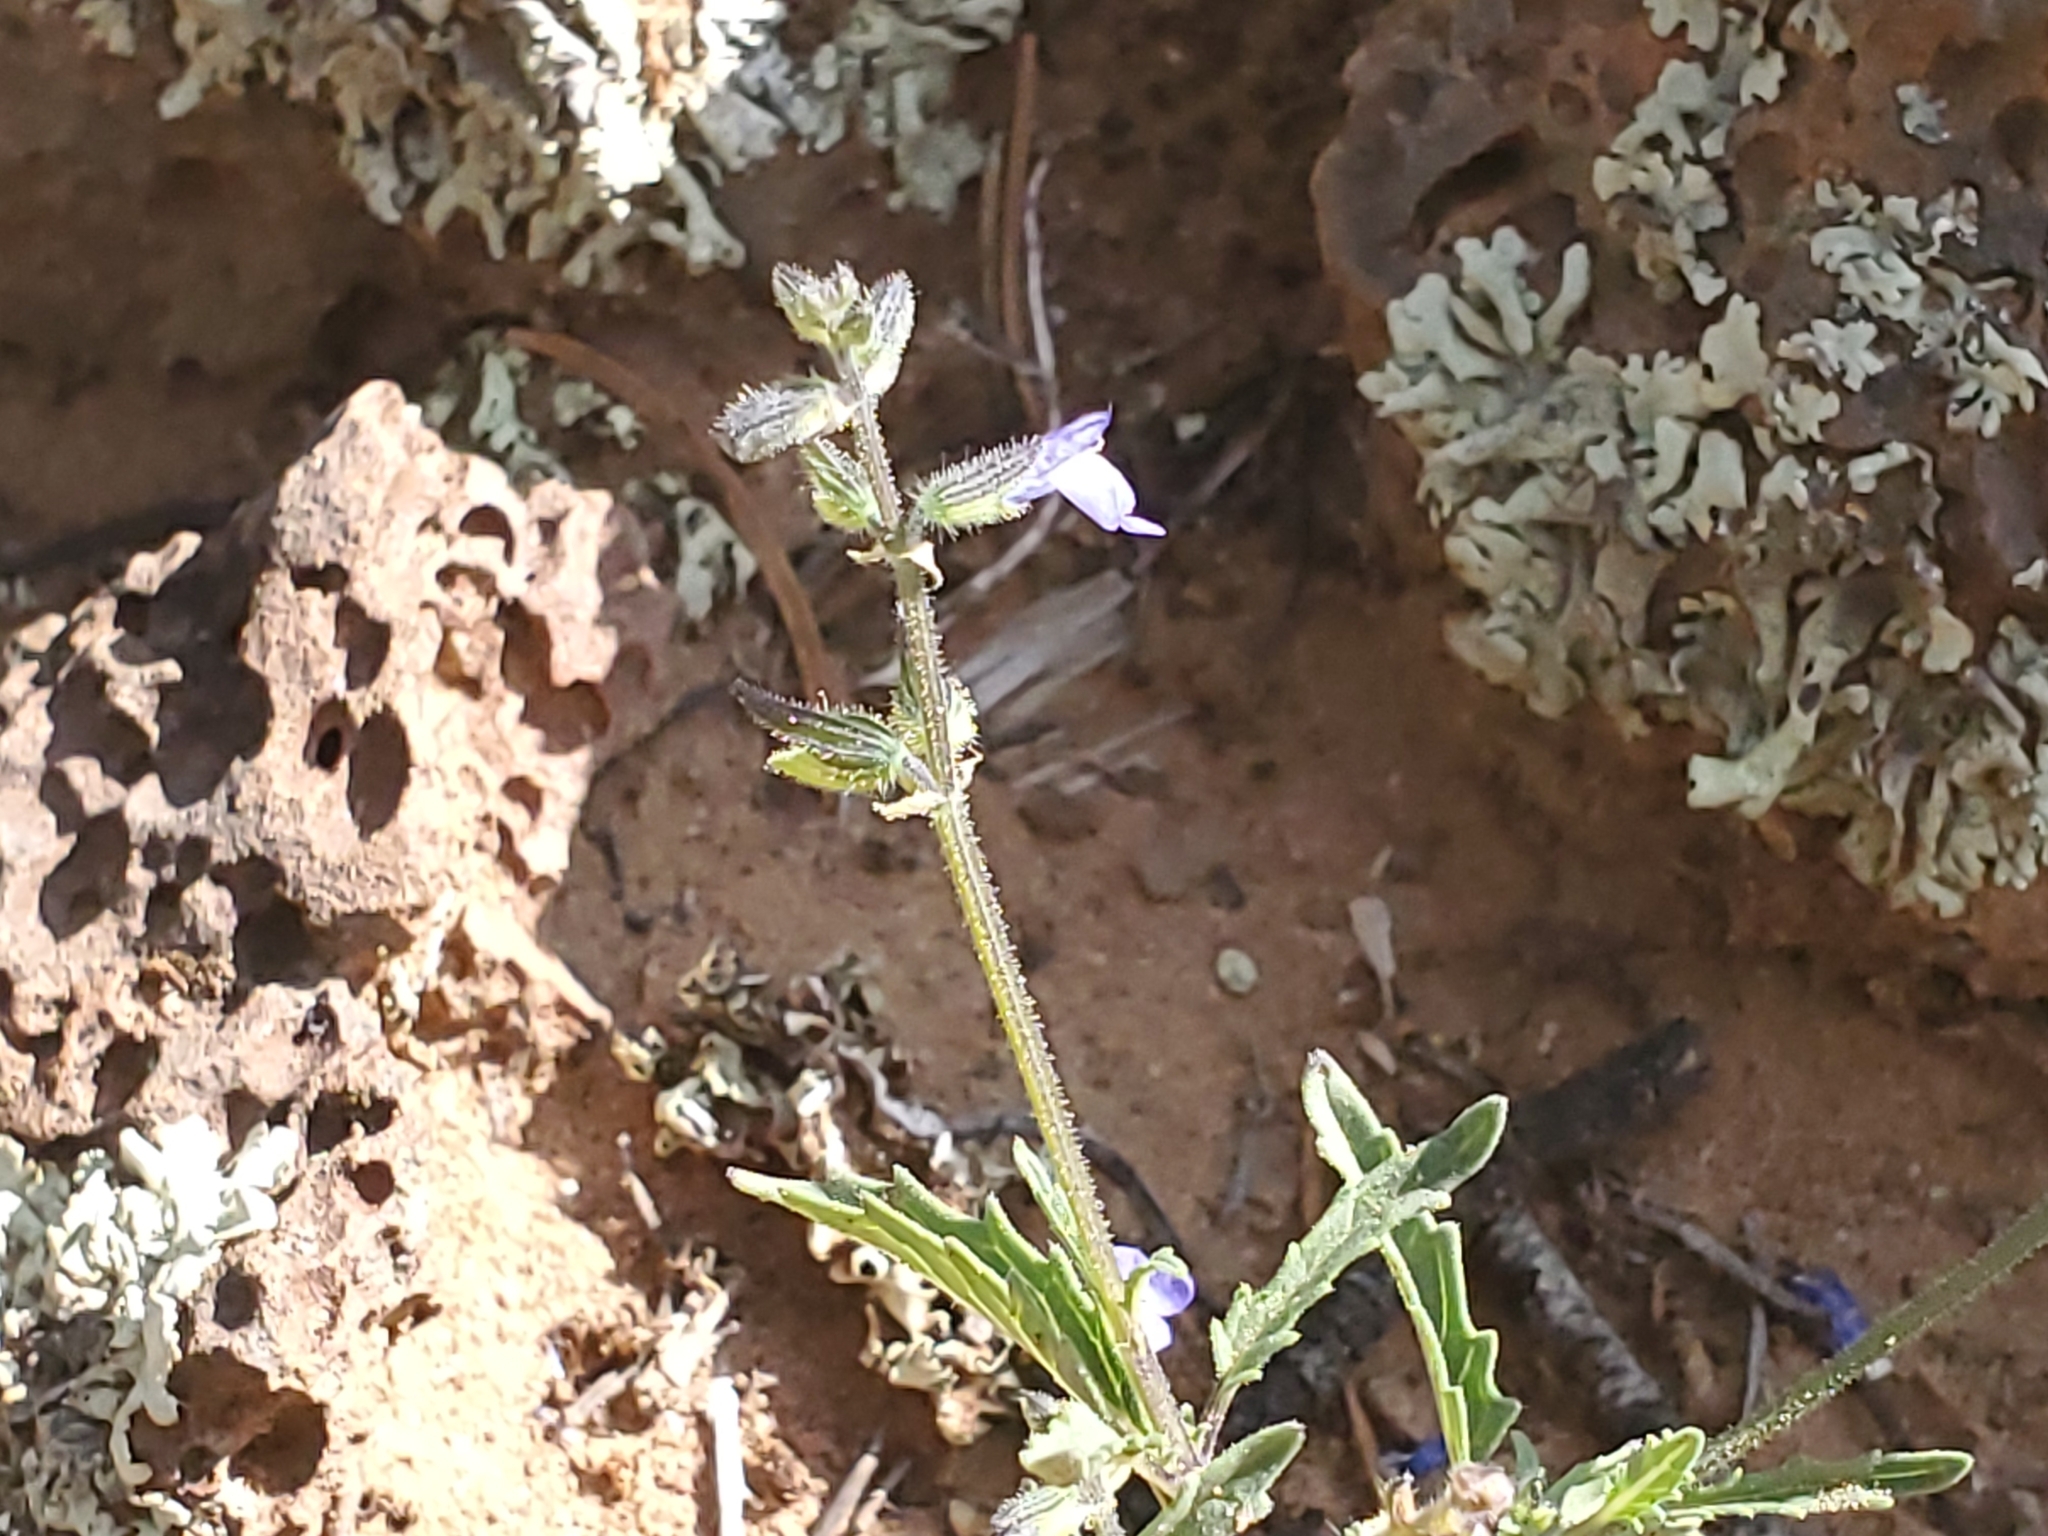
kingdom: Plantae
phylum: Tracheophyta
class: Magnoliopsida
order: Lamiales
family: Lamiaceae
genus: Salvia
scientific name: Salvia subincisa
